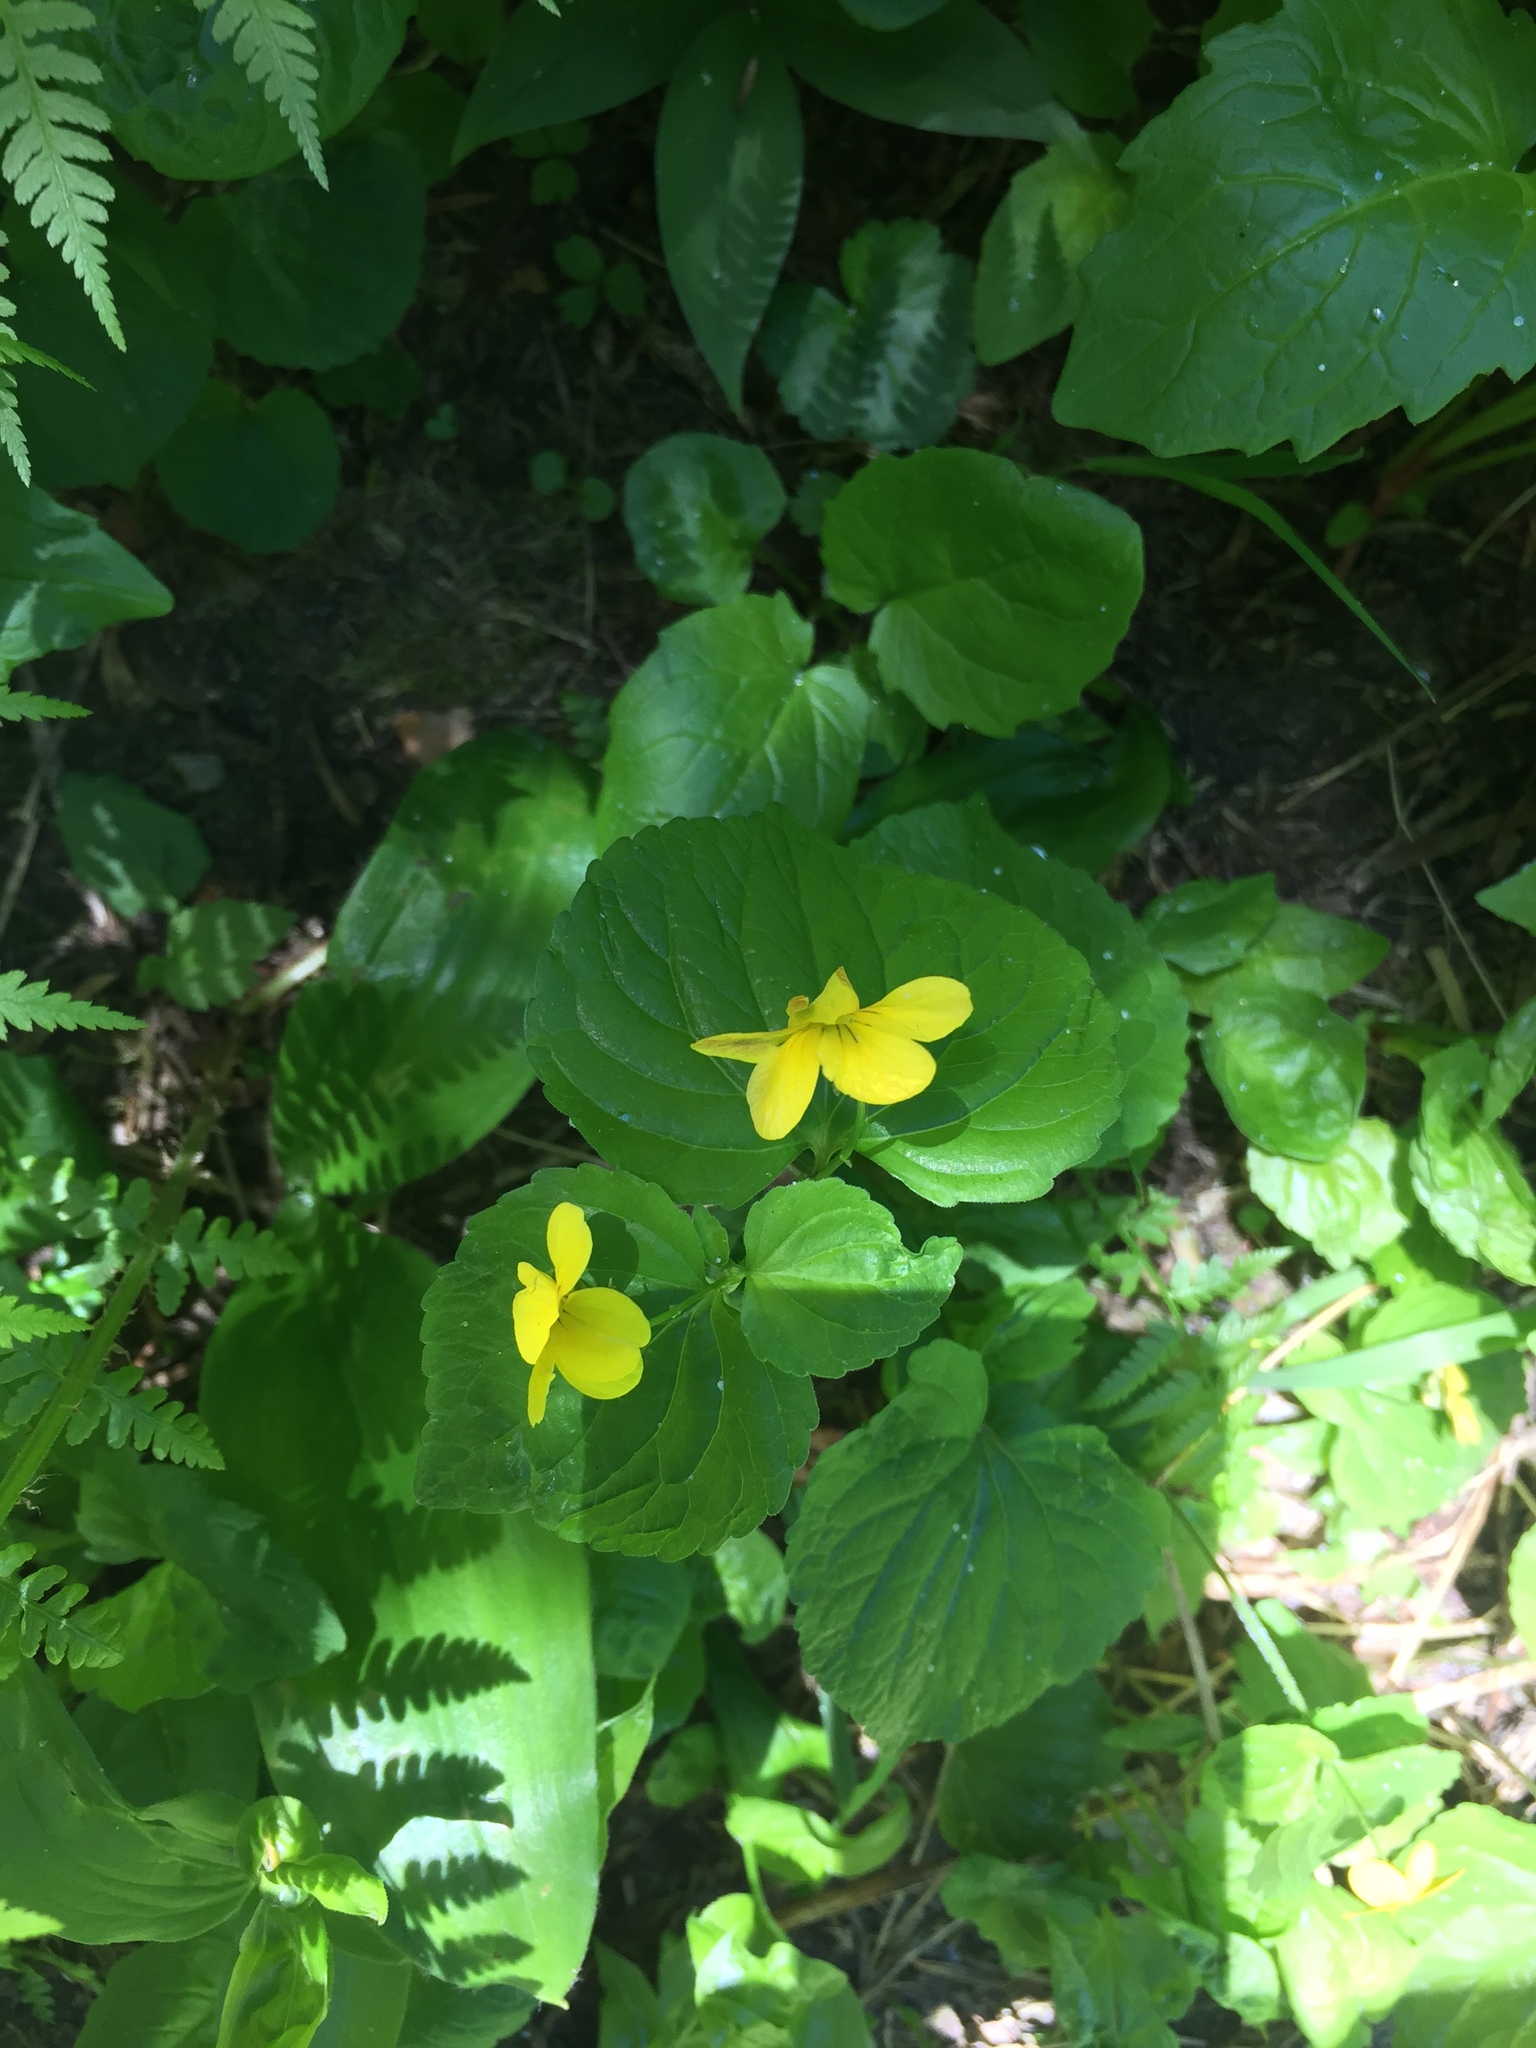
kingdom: Plantae
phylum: Tracheophyta
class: Magnoliopsida
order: Malpighiales
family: Violaceae
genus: Viola
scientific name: Viola glabella
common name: Stream violet
